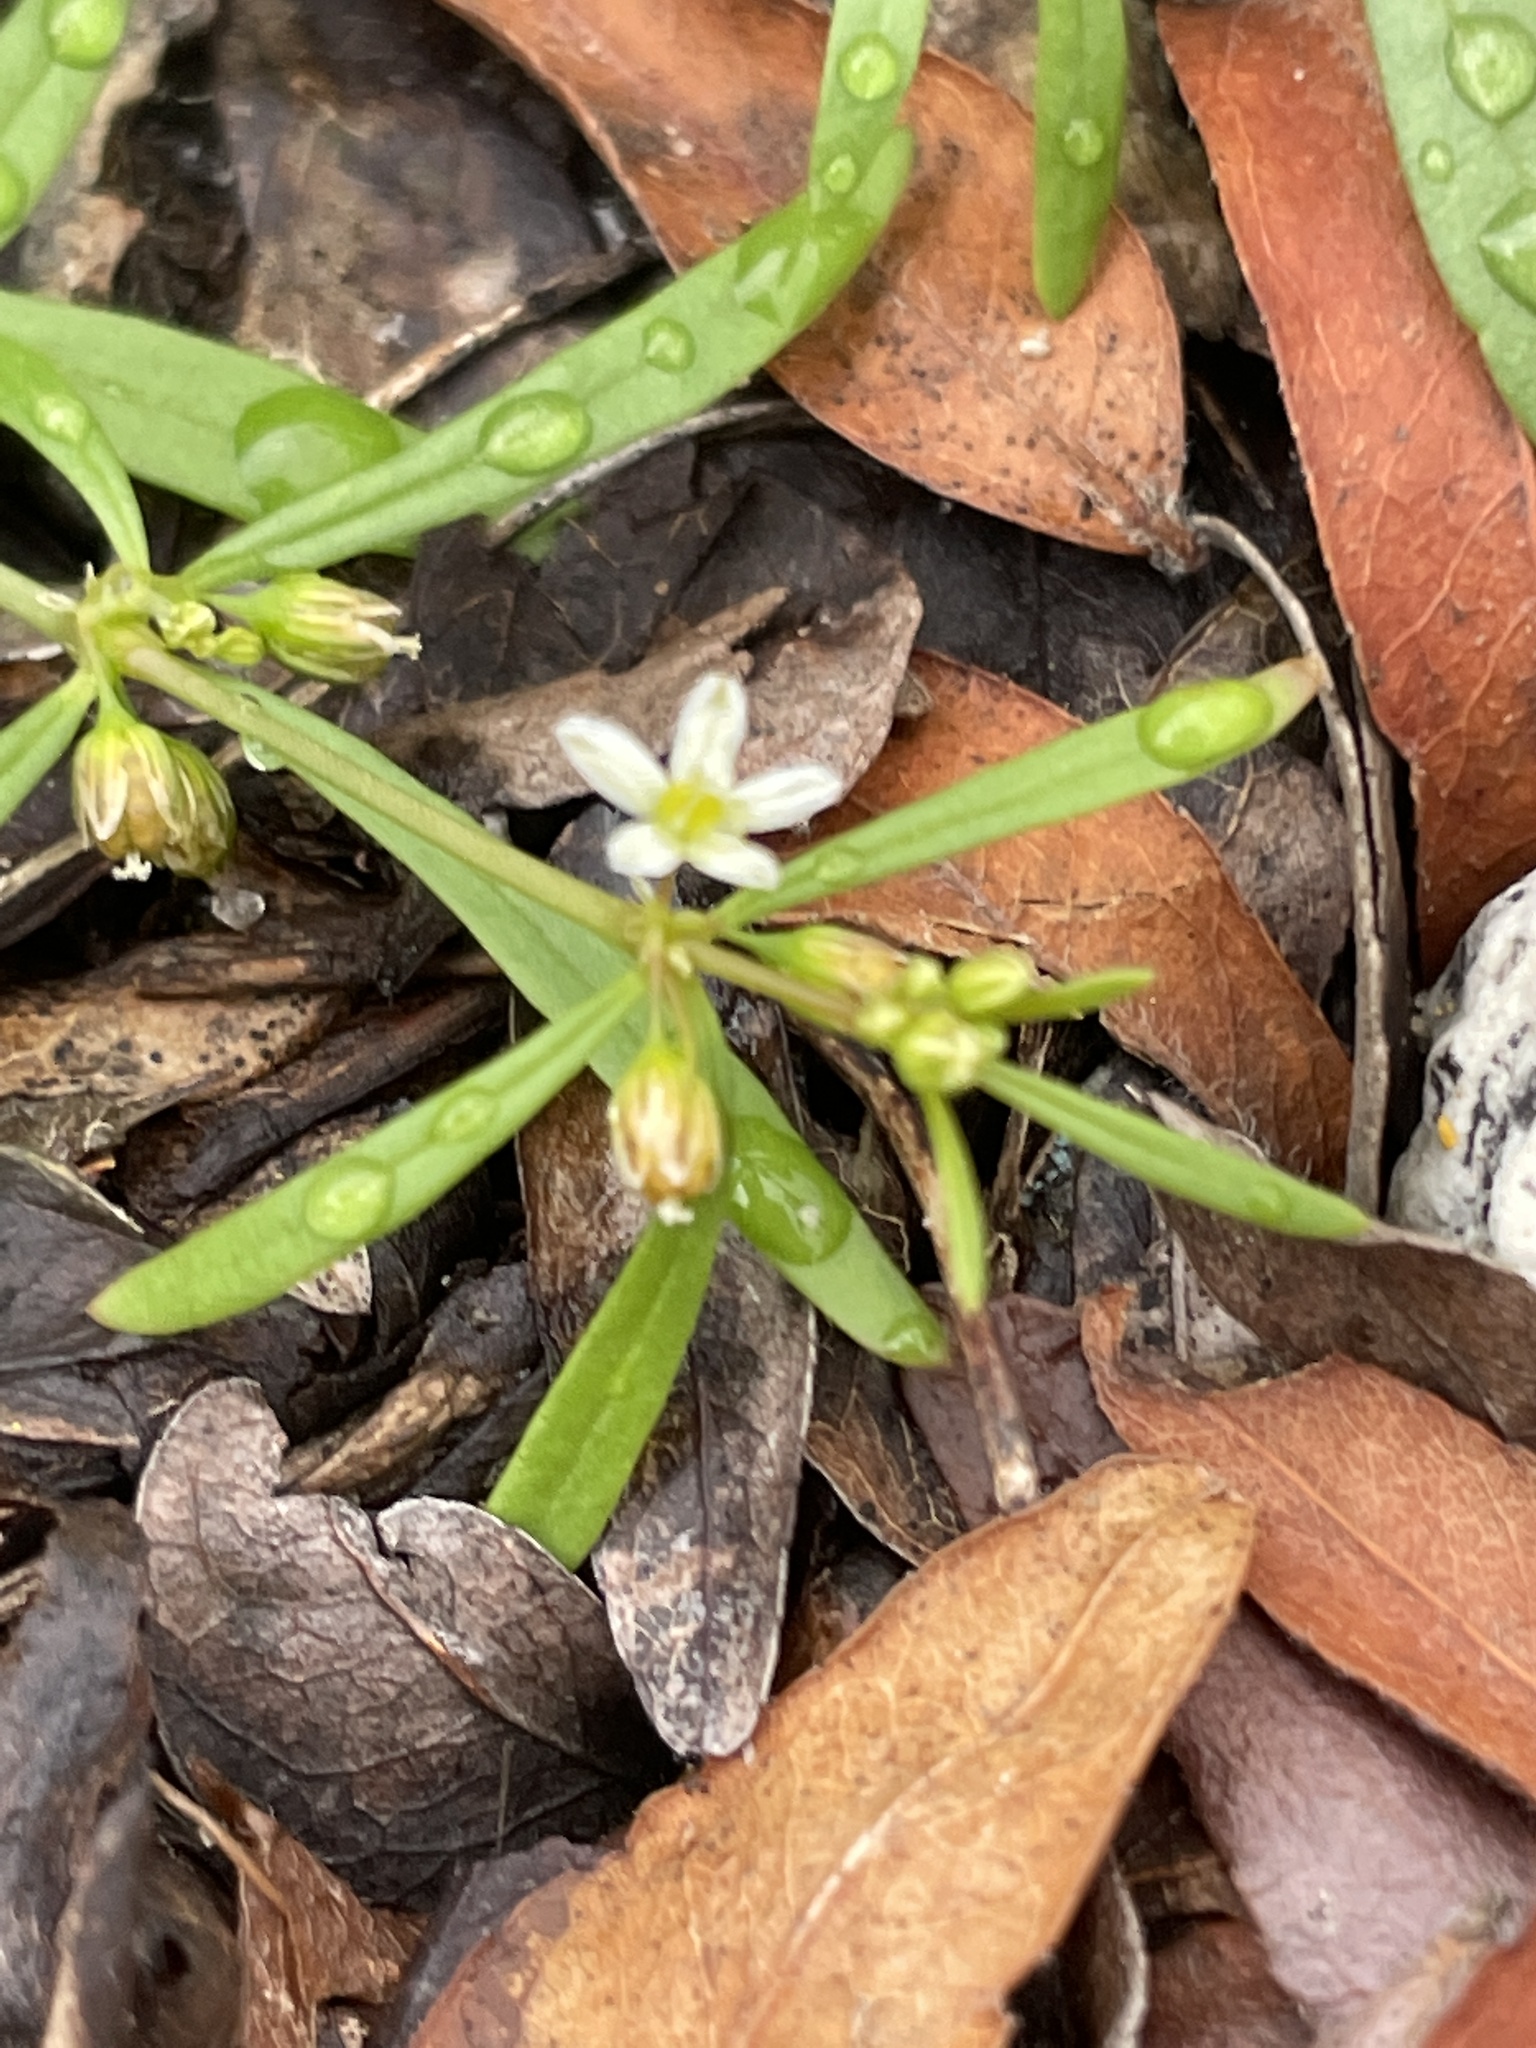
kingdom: Plantae
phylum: Tracheophyta
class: Magnoliopsida
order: Caryophyllales
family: Molluginaceae
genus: Mollugo
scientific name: Mollugo verticillata
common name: Green carpetweed
